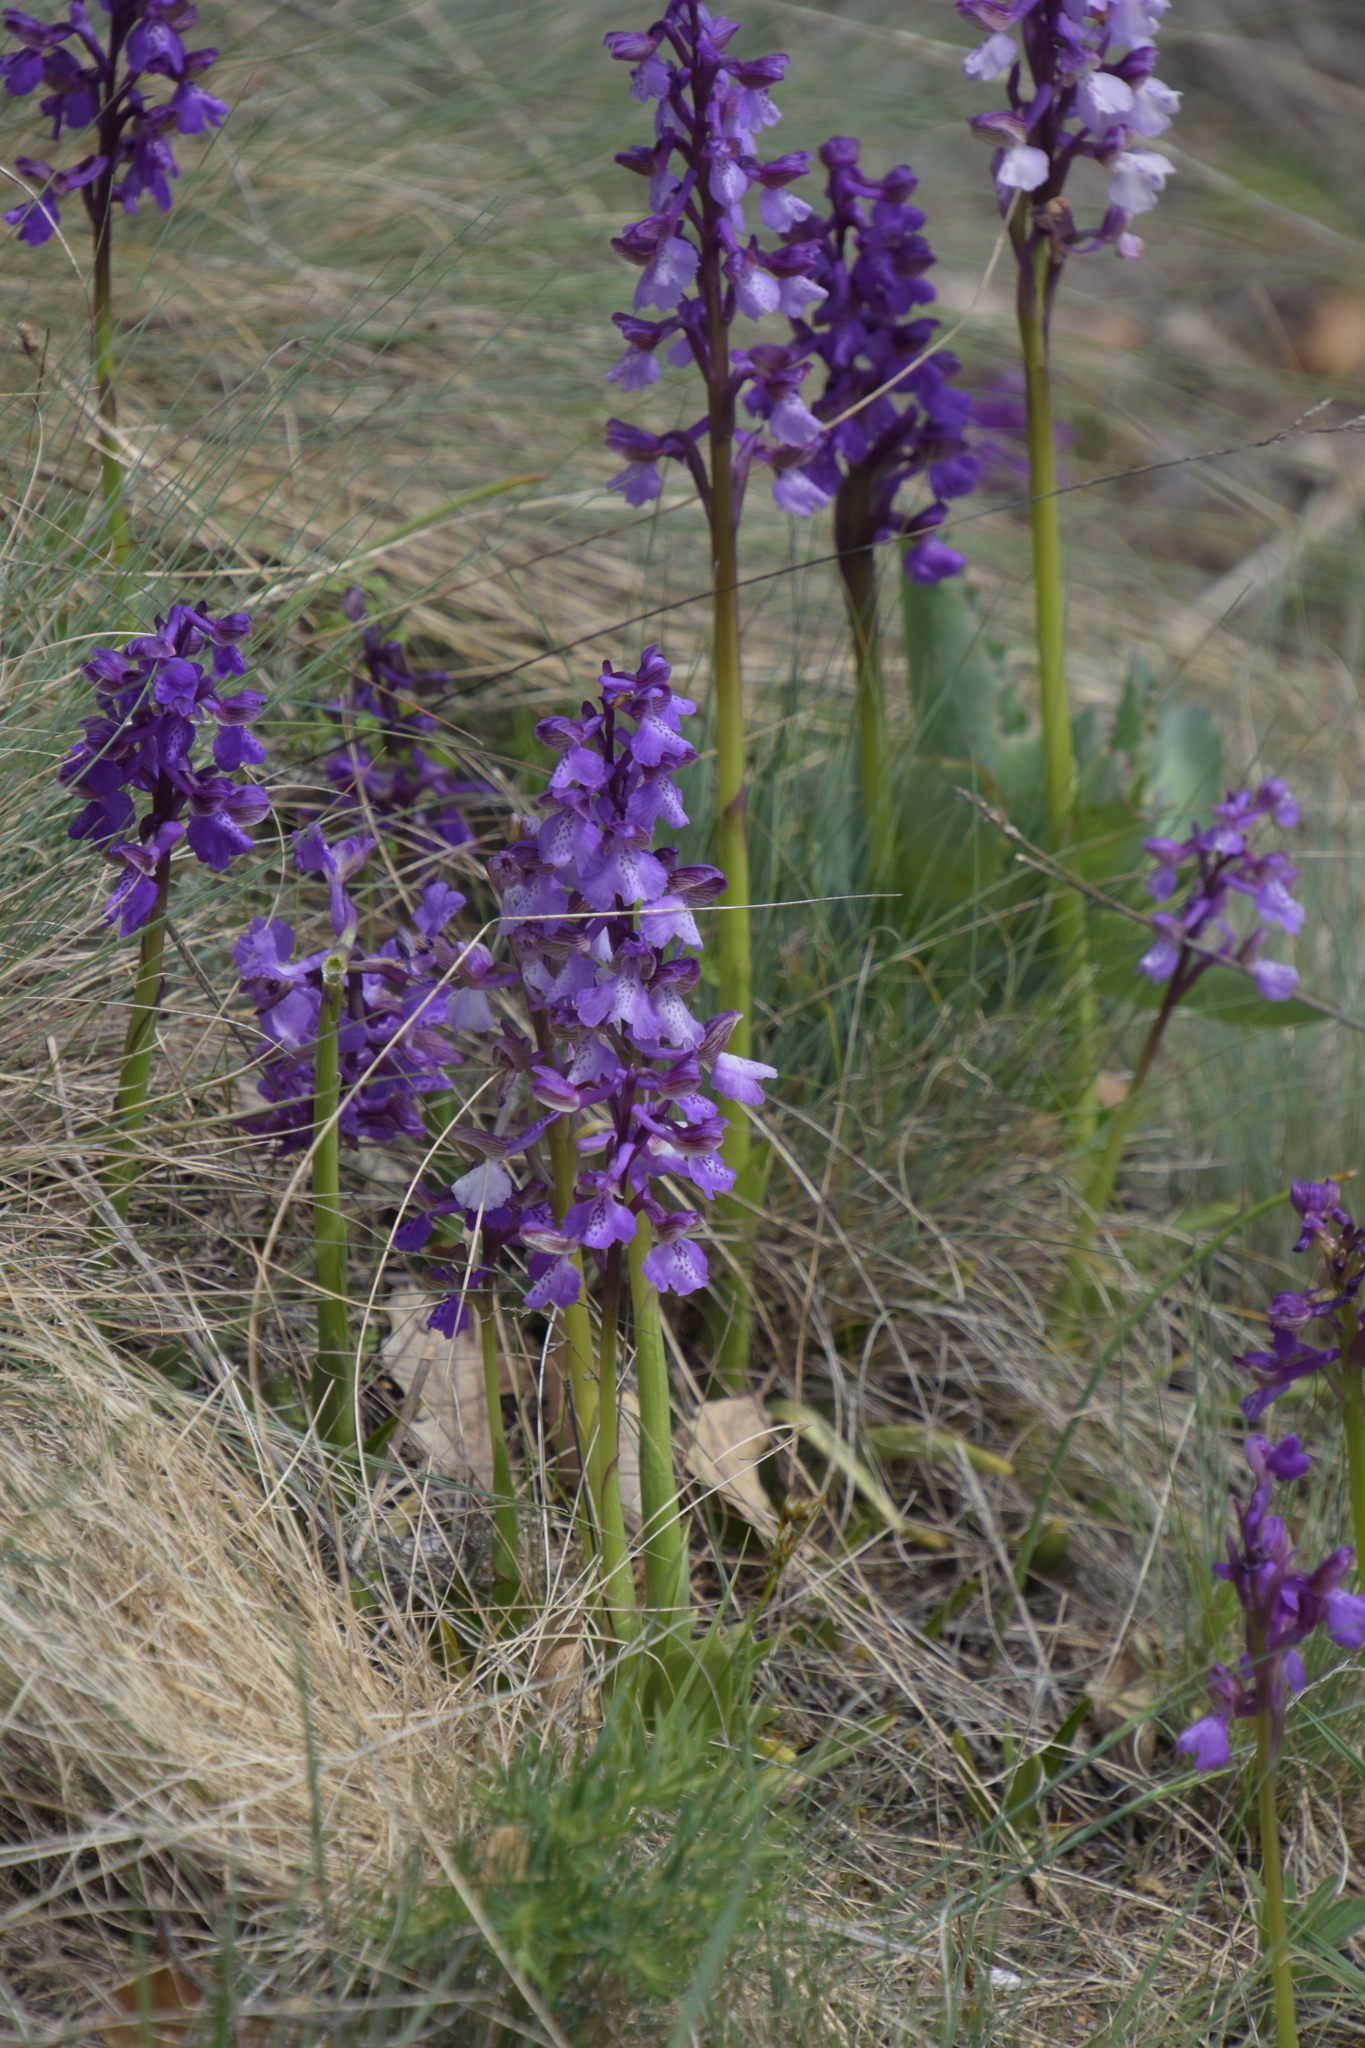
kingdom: Plantae
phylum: Tracheophyta
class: Liliopsida
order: Asparagales
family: Orchidaceae
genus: Anacamptis
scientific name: Anacamptis morio
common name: Green-winged orchid
